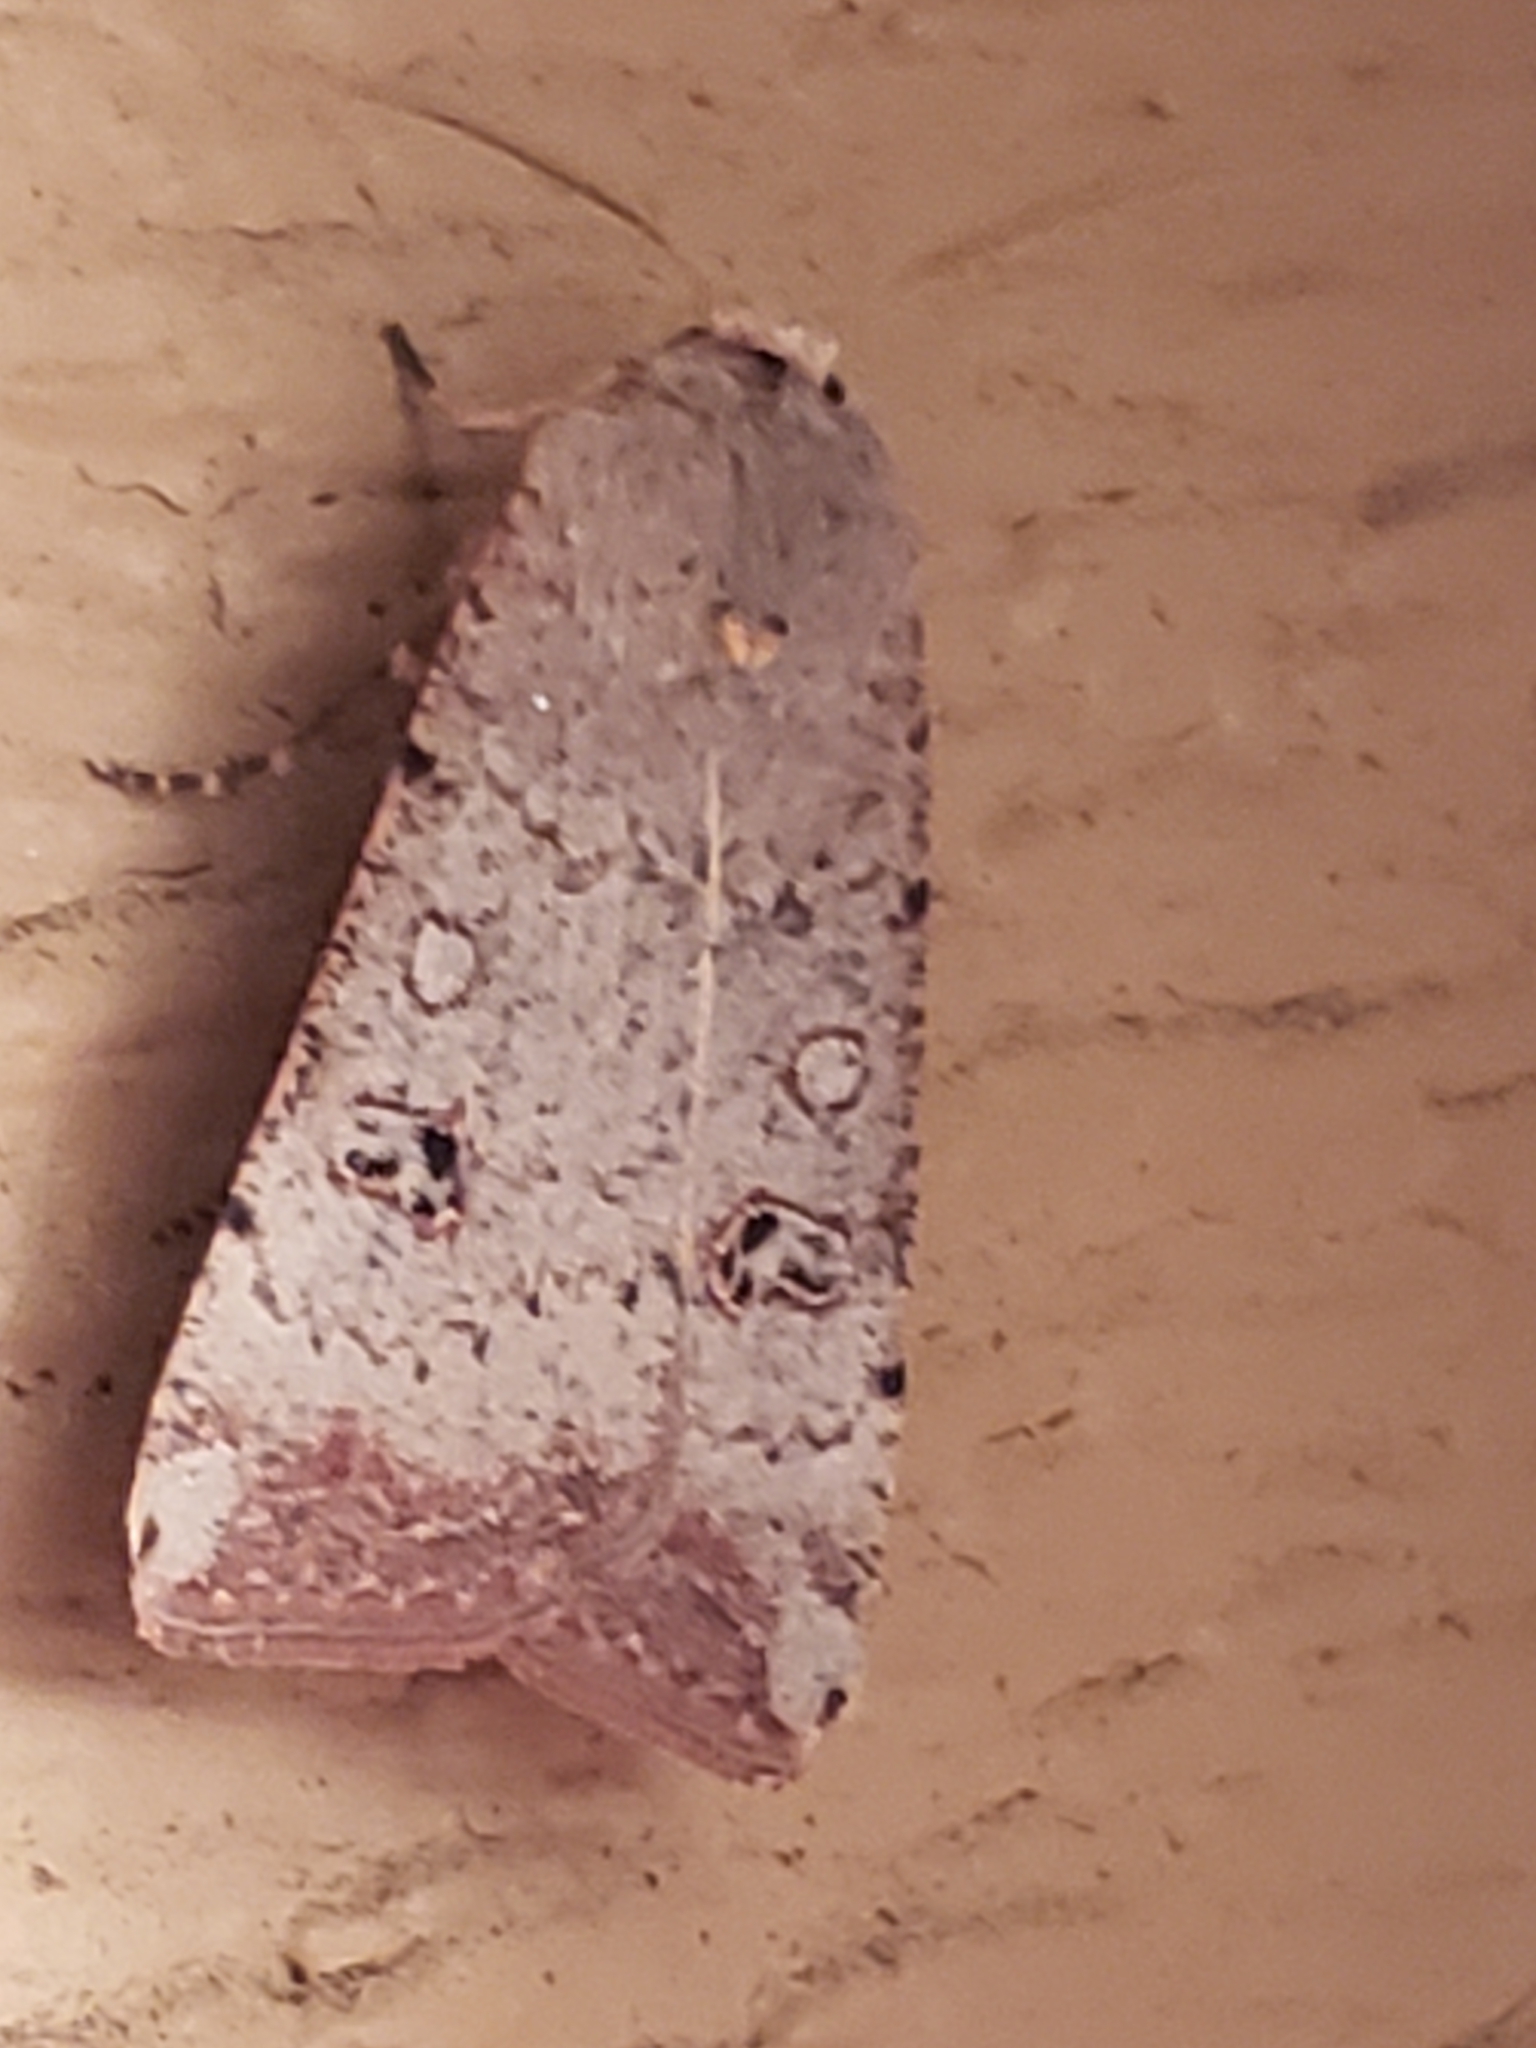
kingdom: Animalia
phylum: Arthropoda
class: Insecta
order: Lepidoptera
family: Noctuidae
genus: Anicla
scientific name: Anicla infecta
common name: Green cutworm
